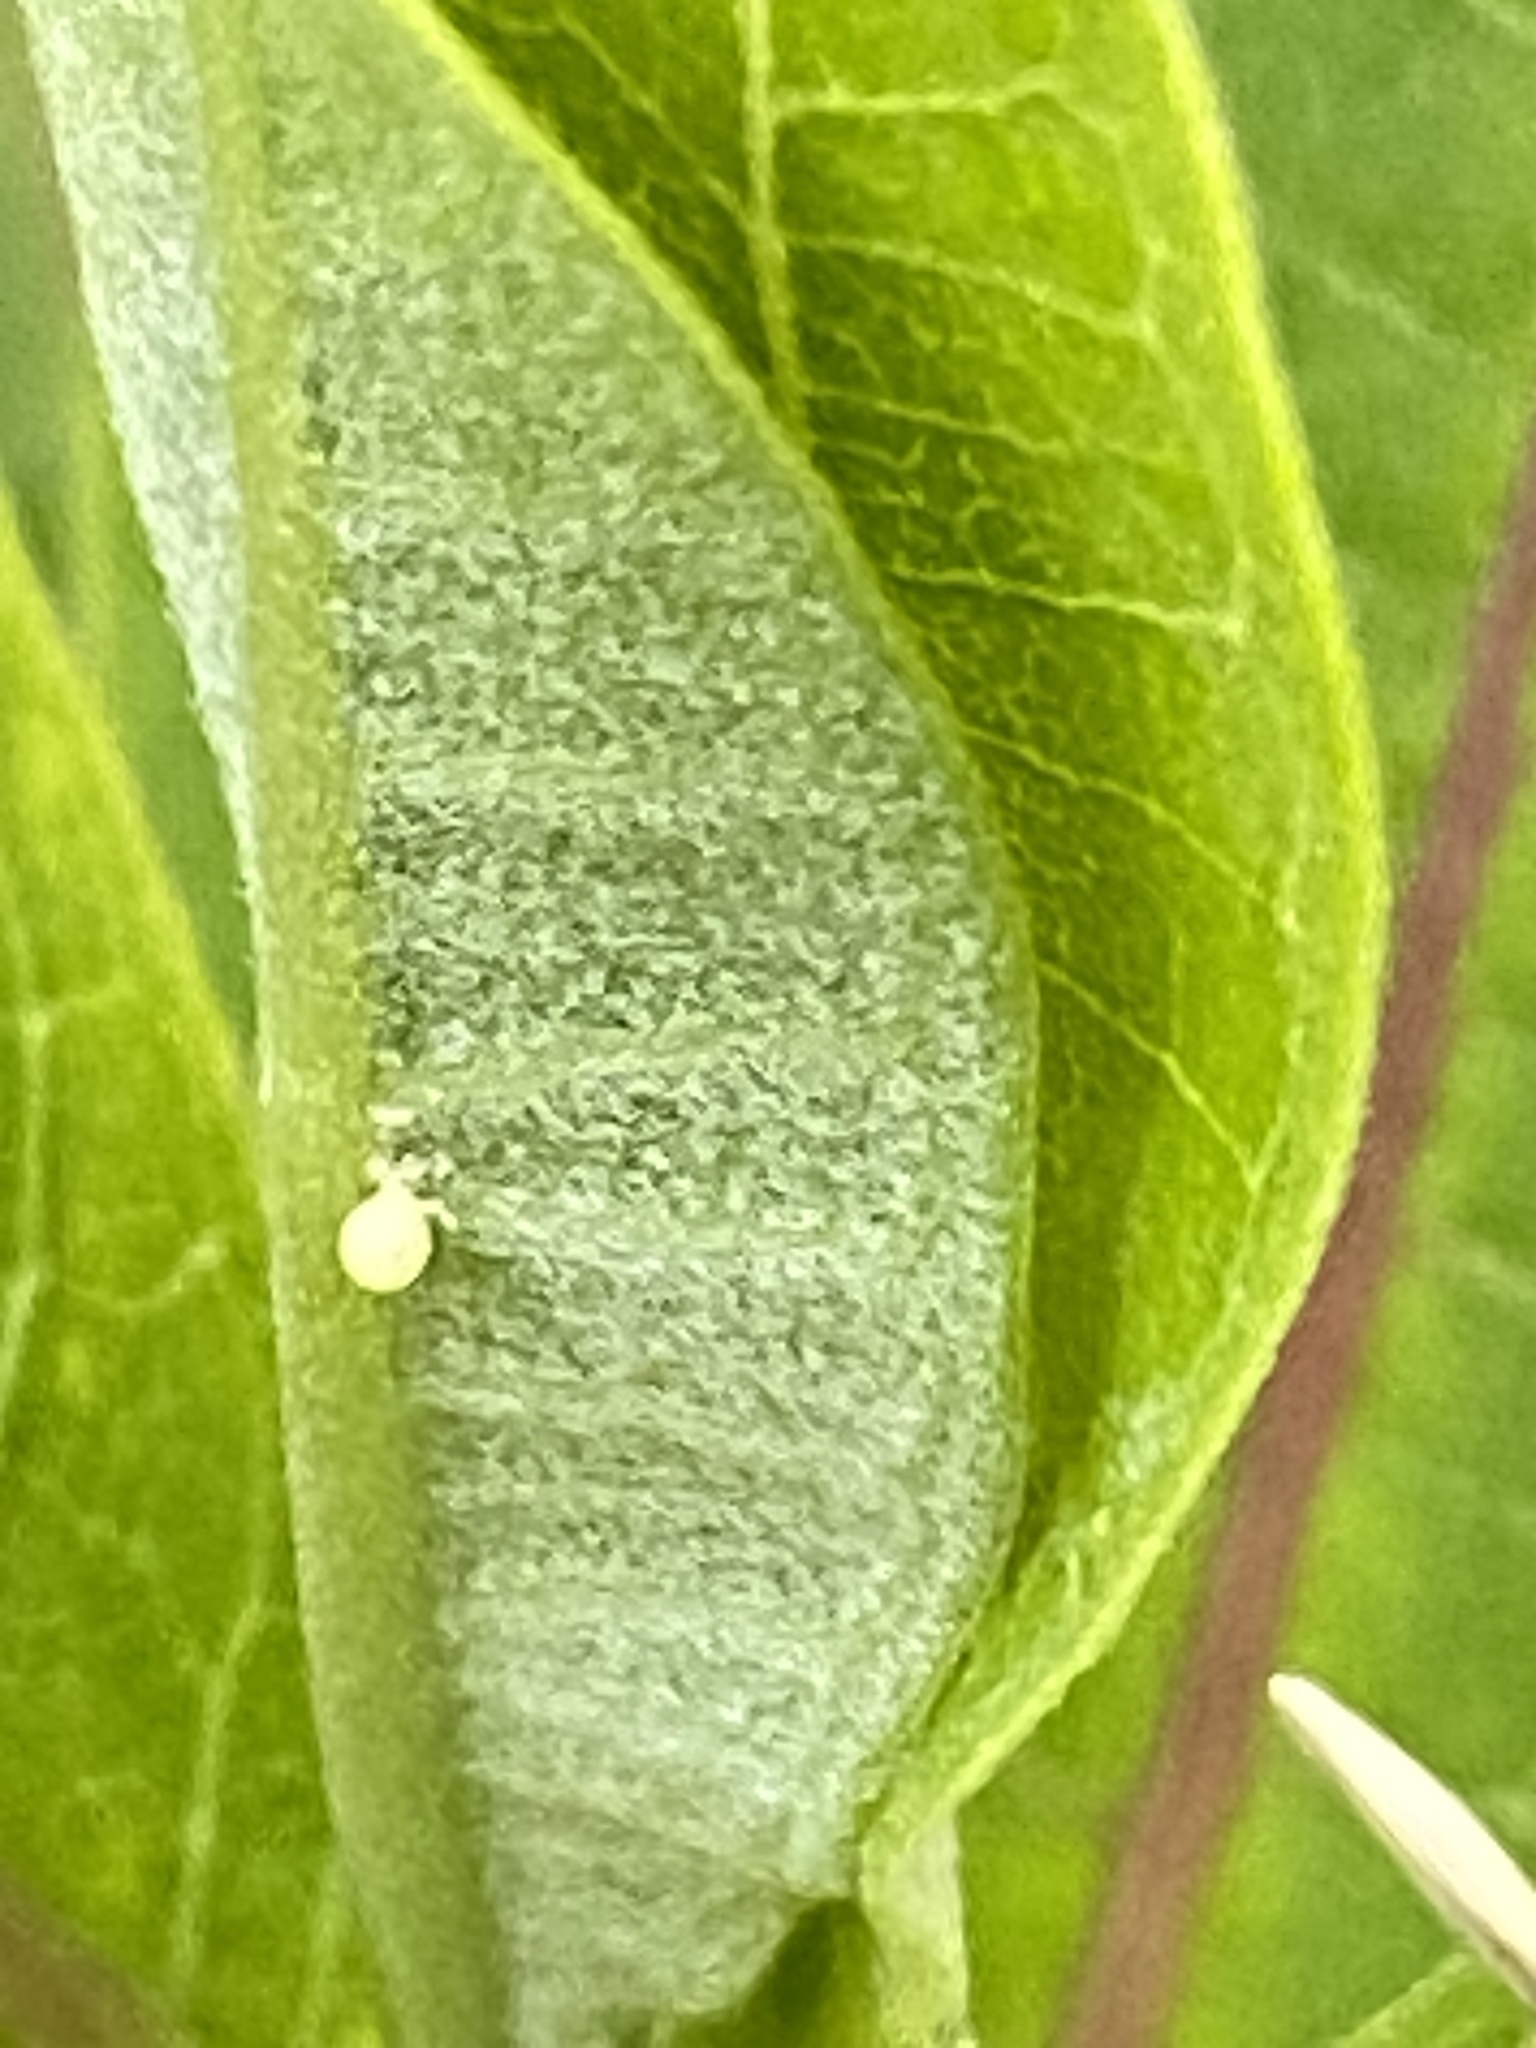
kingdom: Animalia
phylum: Arthropoda
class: Insecta
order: Lepidoptera
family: Nymphalidae
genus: Danaus
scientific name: Danaus plexippus
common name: Monarch
